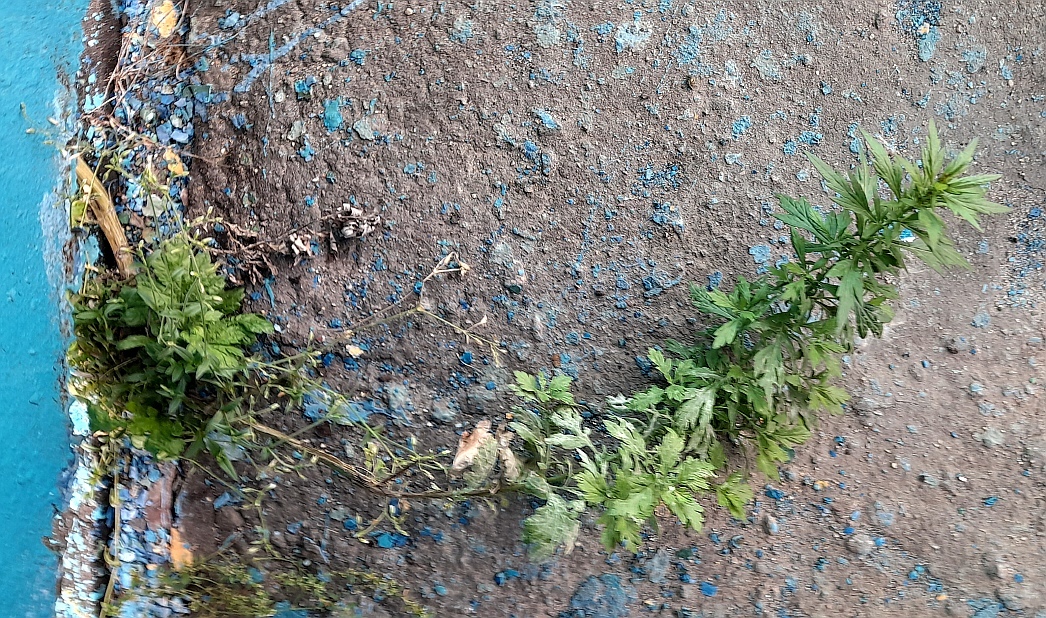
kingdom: Plantae
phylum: Tracheophyta
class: Magnoliopsida
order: Asterales
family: Asteraceae
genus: Artemisia
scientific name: Artemisia vulgaris
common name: Mugwort
